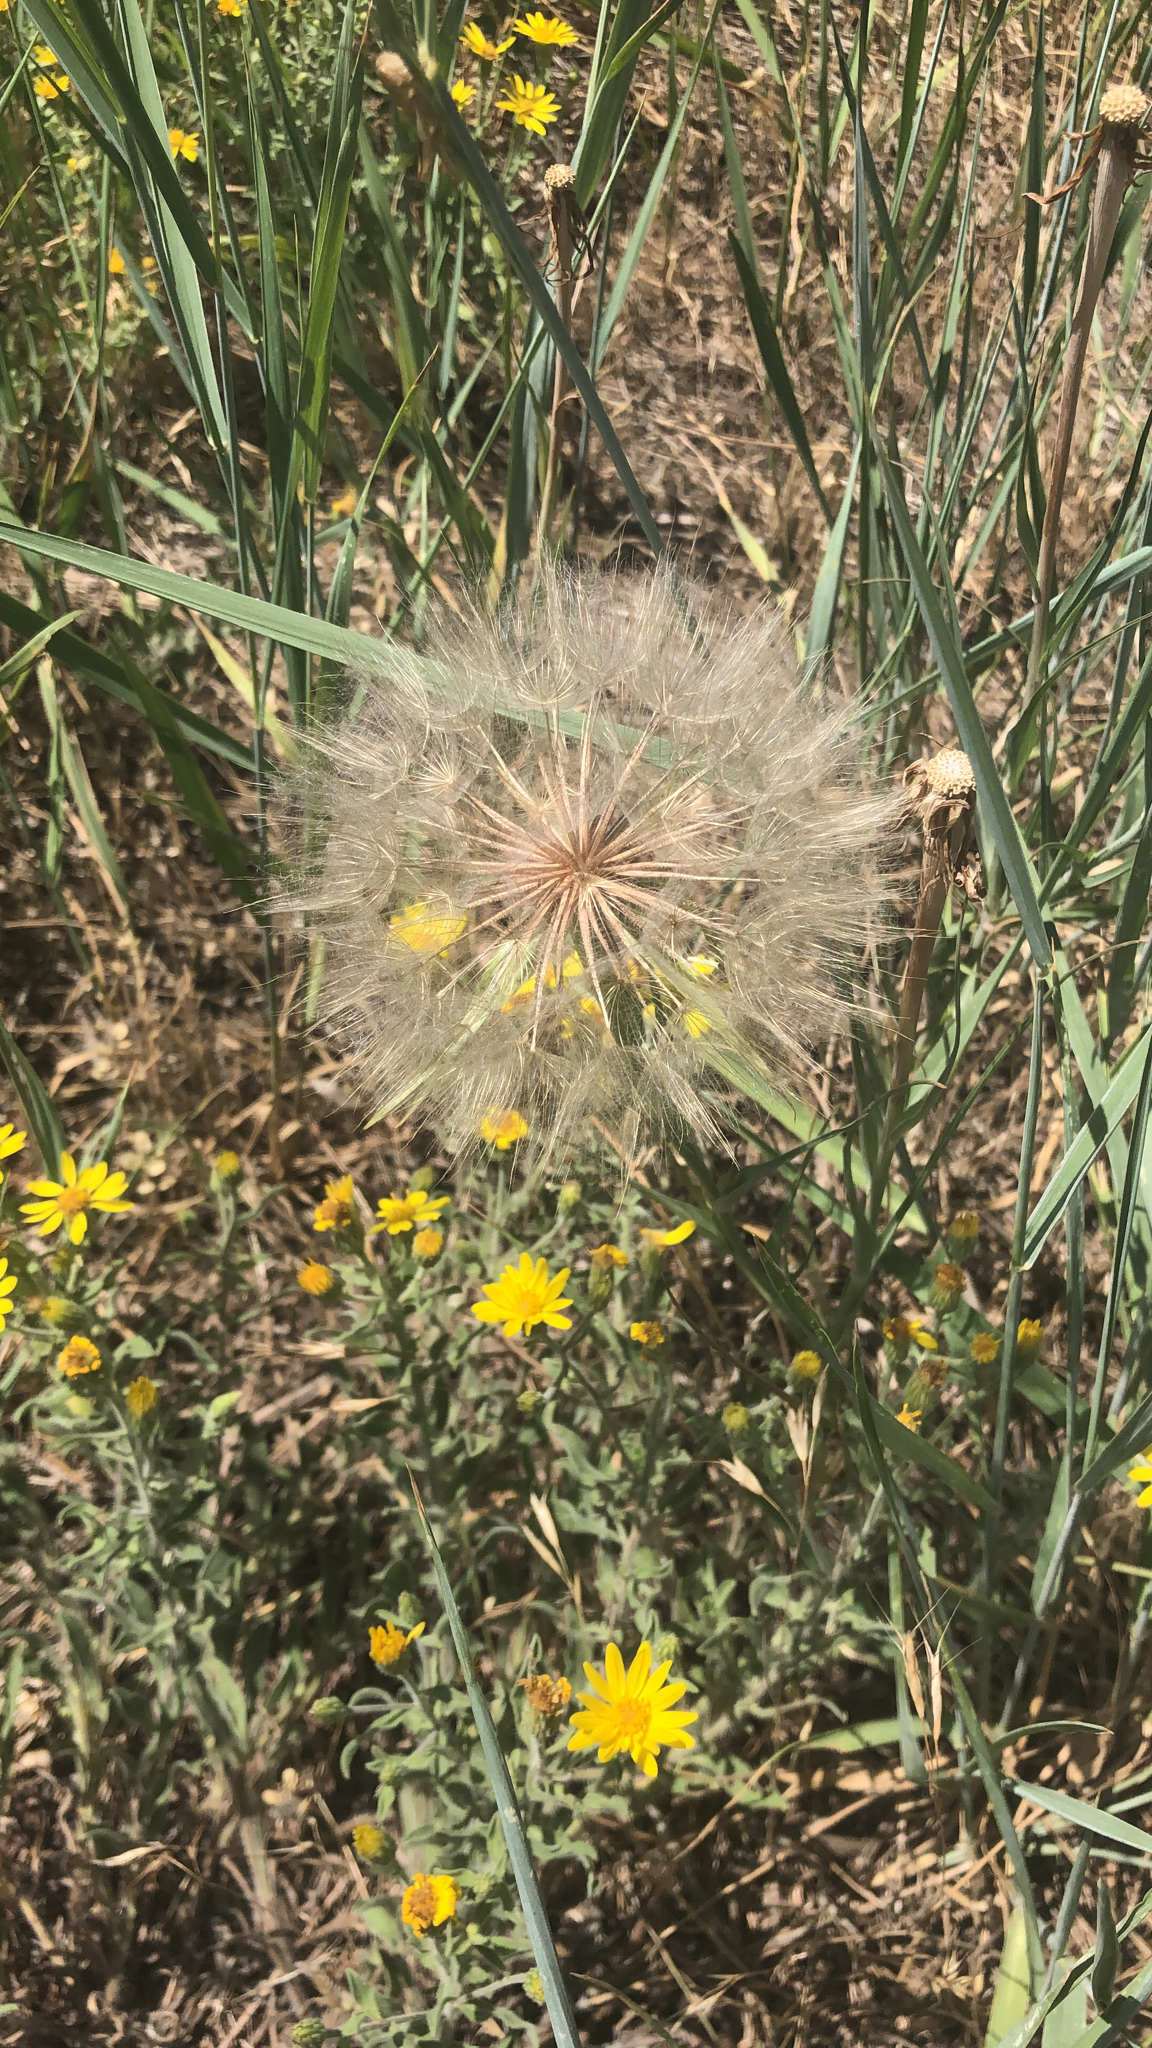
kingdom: Plantae
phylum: Tracheophyta
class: Magnoliopsida
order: Asterales
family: Asteraceae
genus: Tragopogon
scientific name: Tragopogon dubius
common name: Yellow salsify
